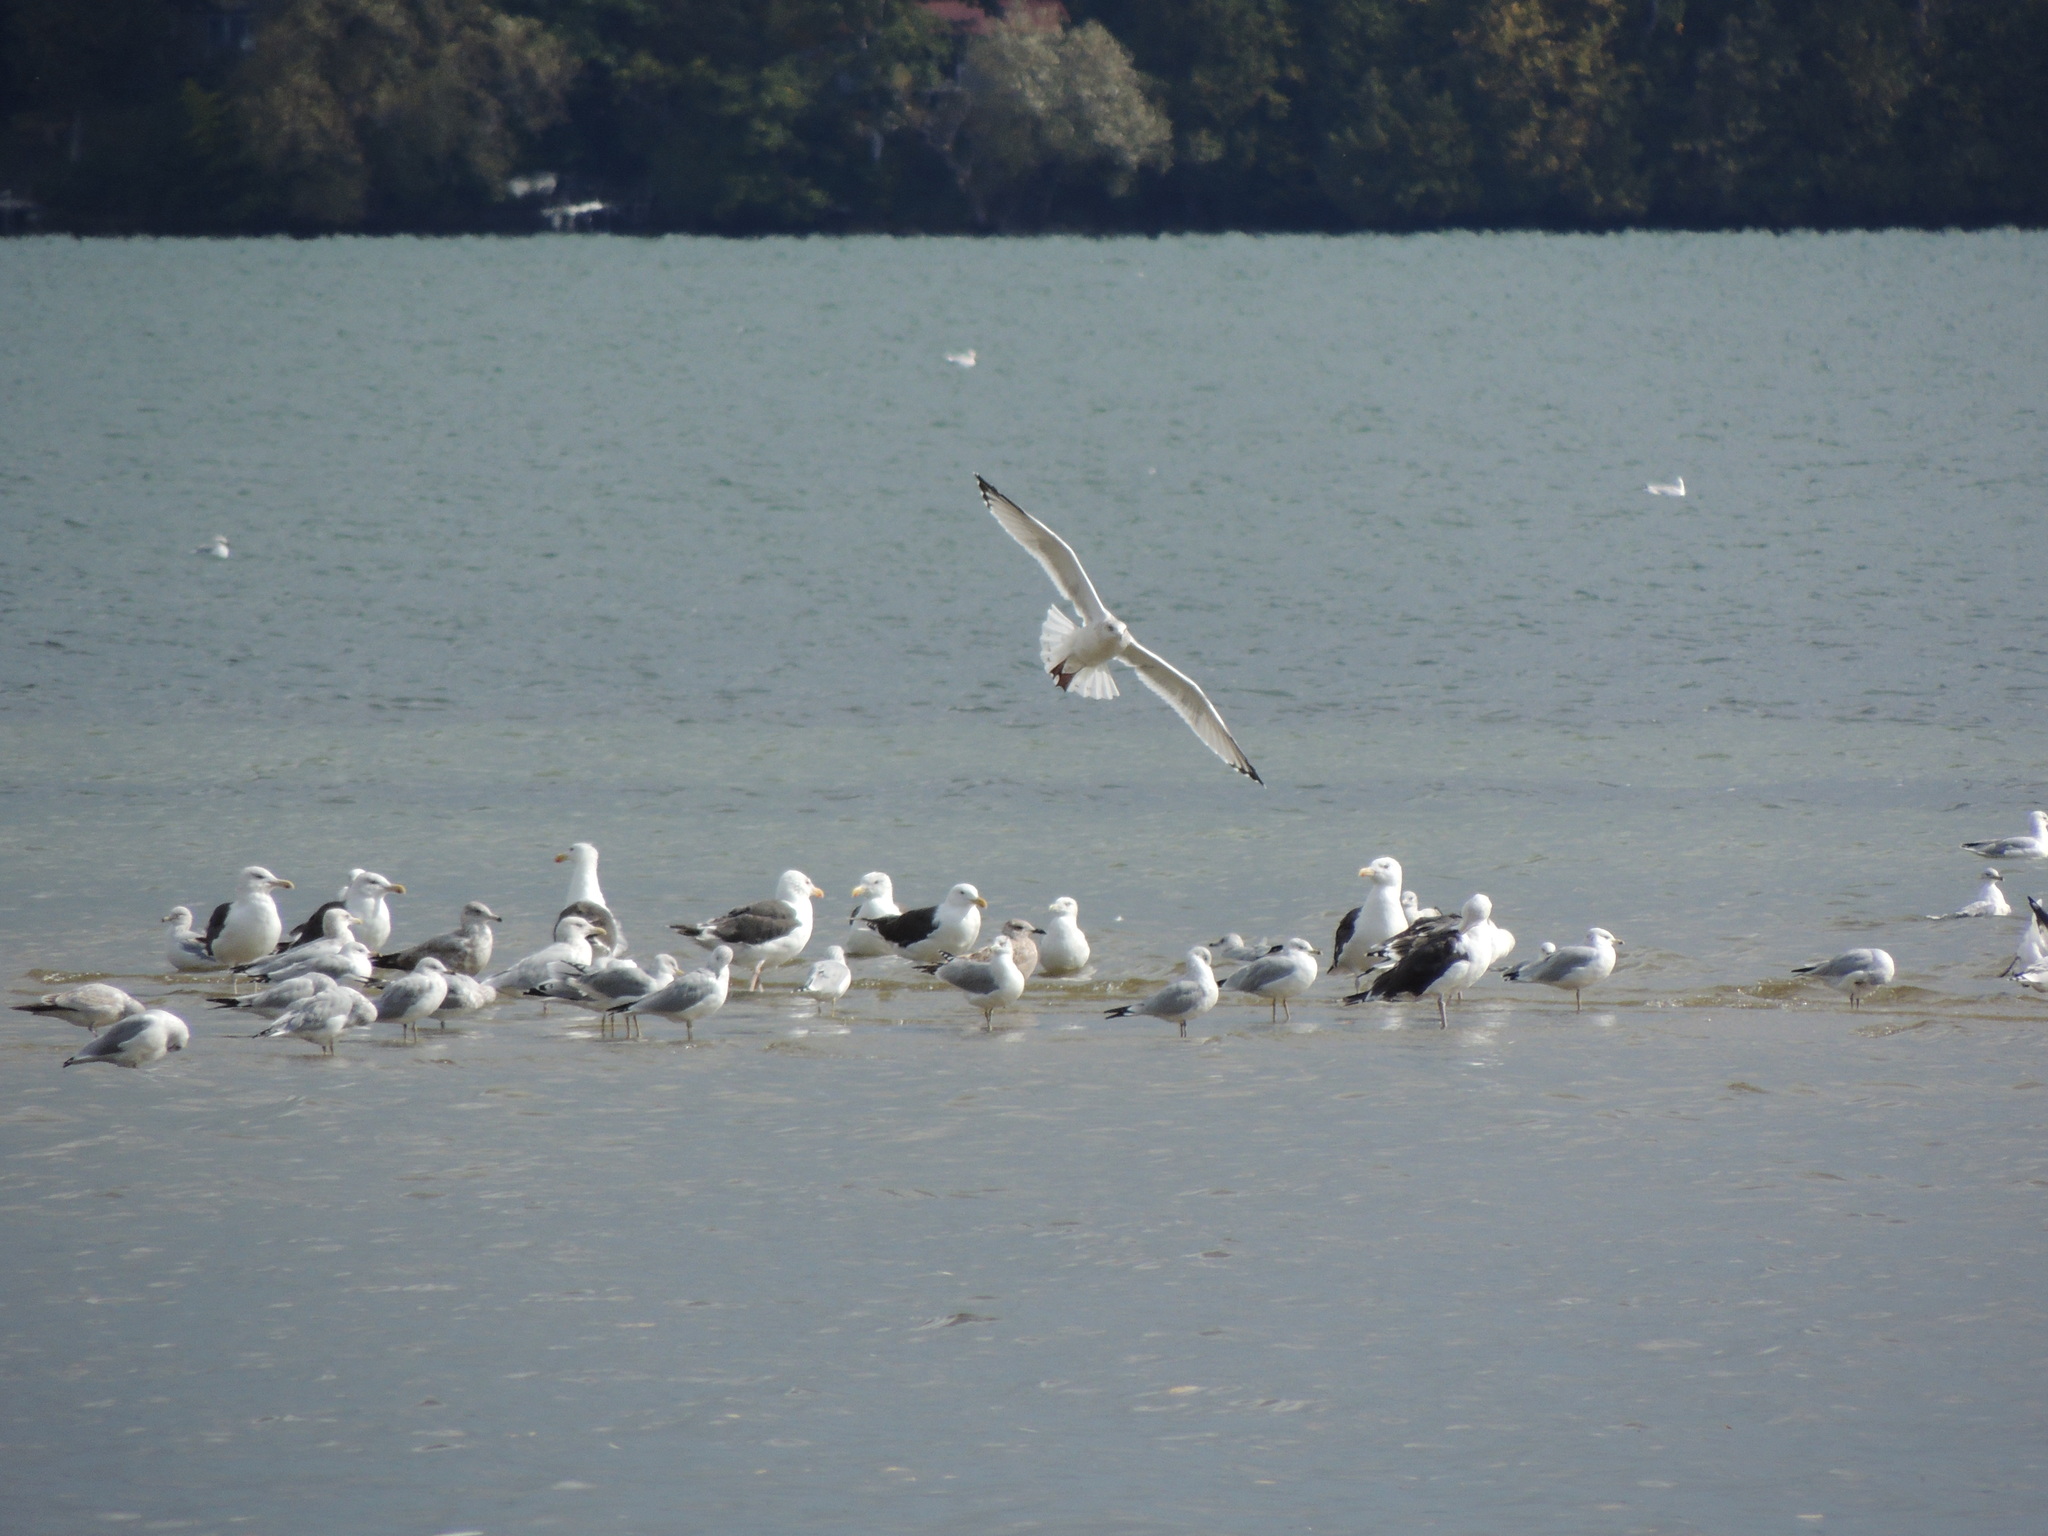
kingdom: Animalia
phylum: Chordata
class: Aves
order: Charadriiformes
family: Laridae
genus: Larus
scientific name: Larus marinus
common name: Great black-backed gull
